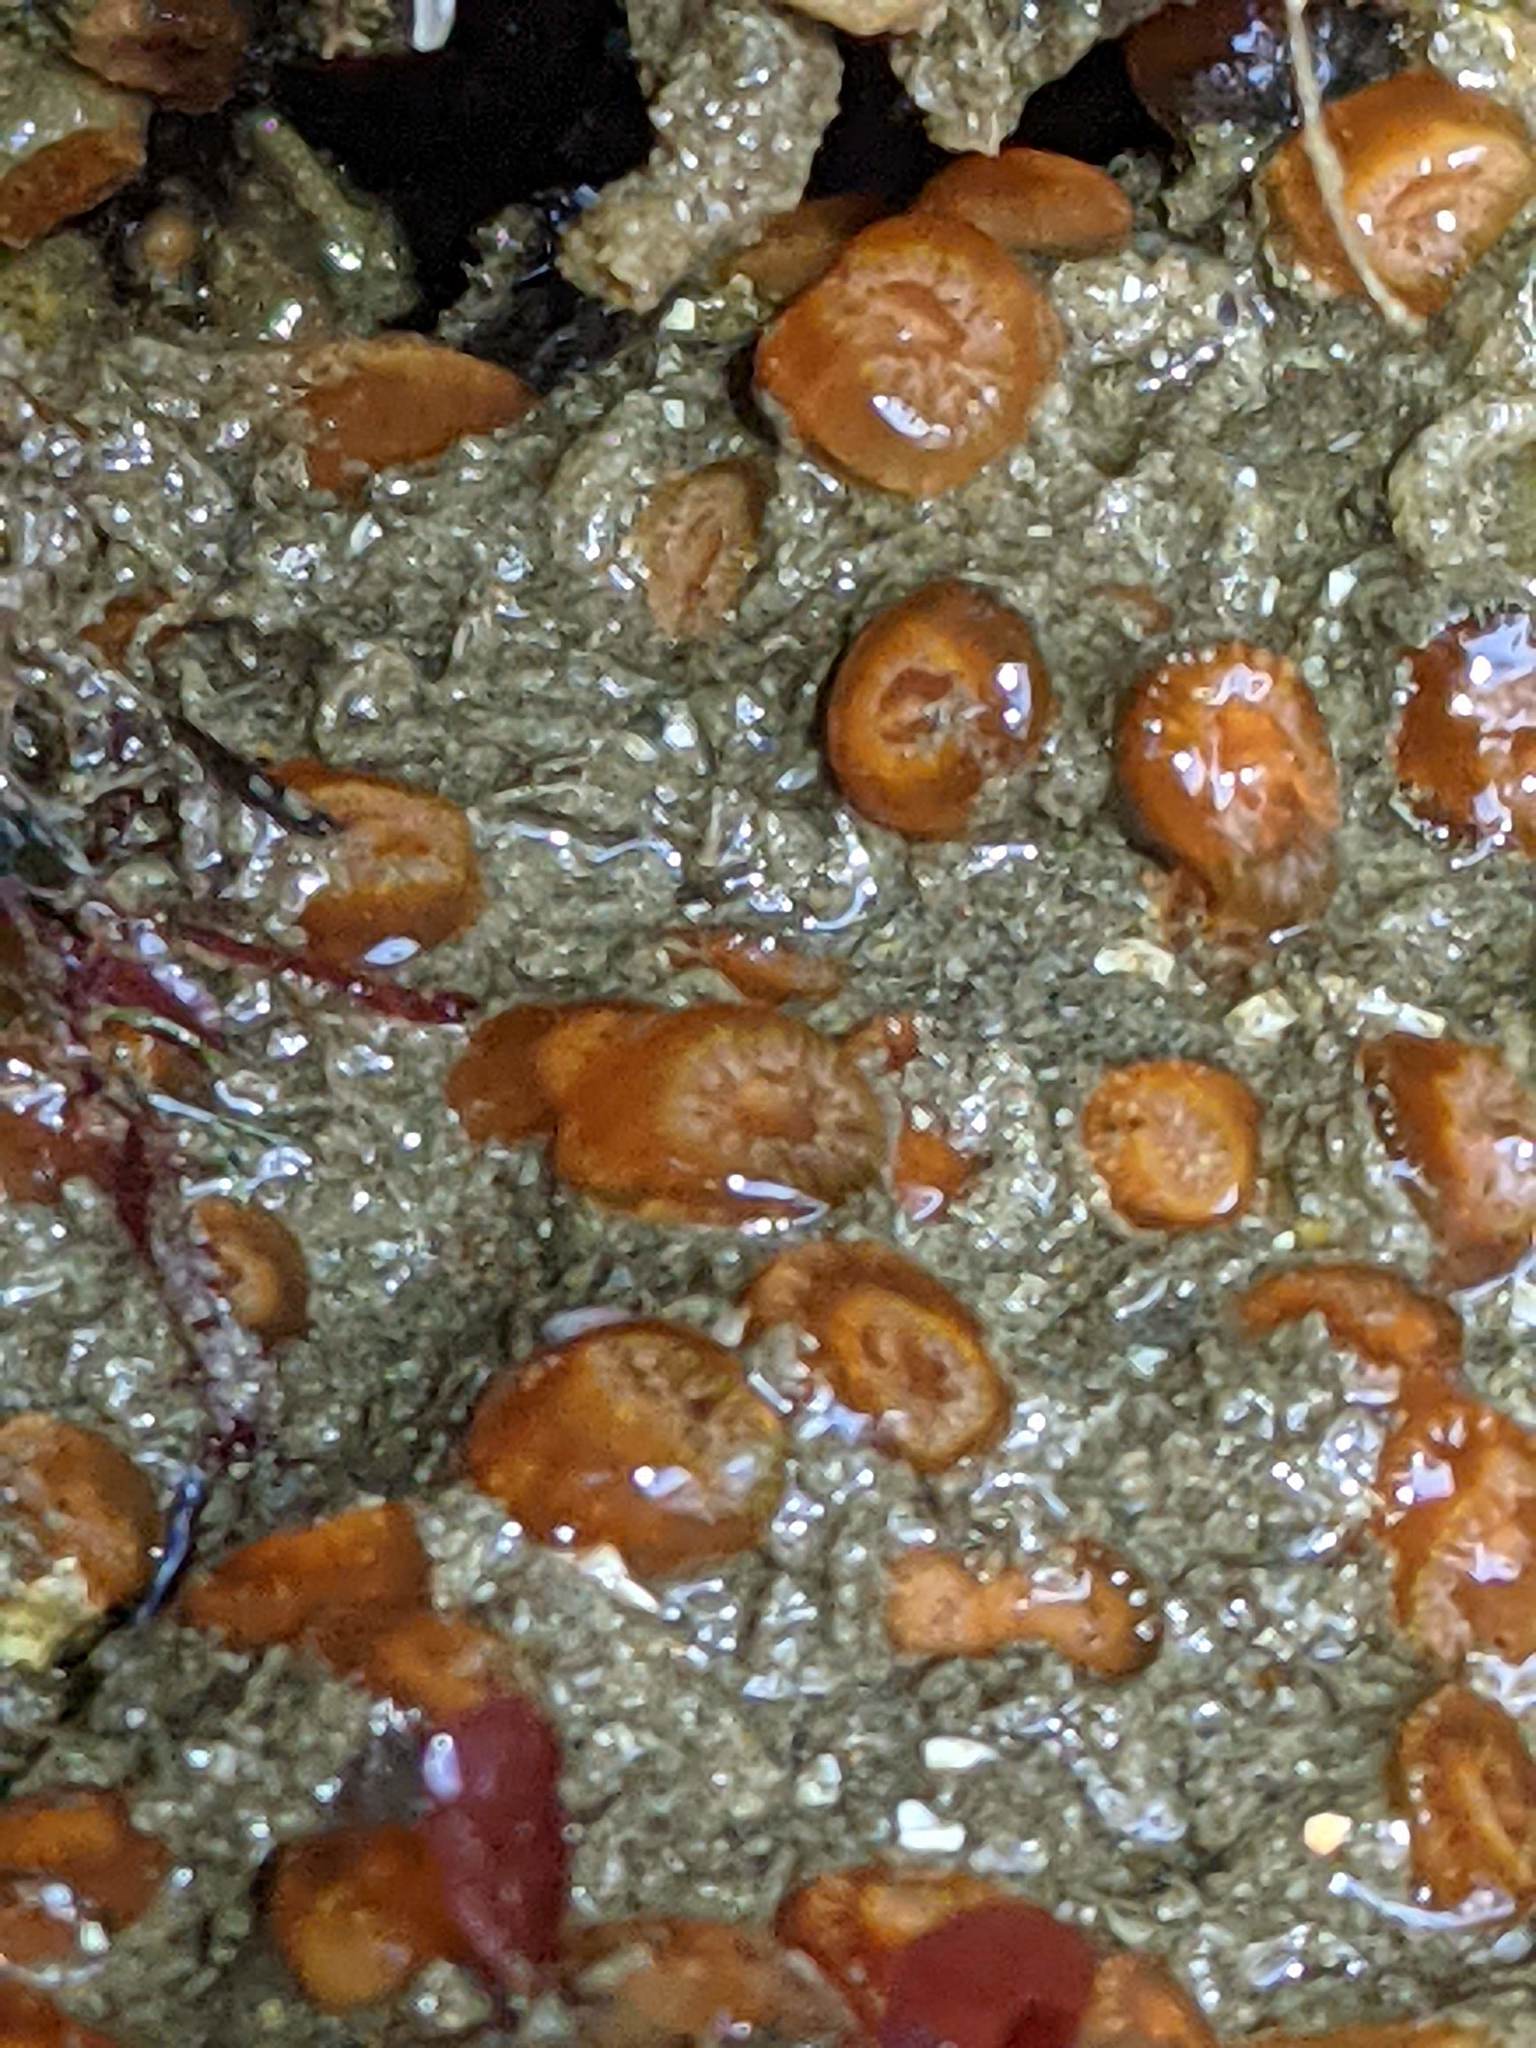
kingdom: Animalia
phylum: Cnidaria
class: Anthozoa
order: Corallimorpharia
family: Corallimorphidae
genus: Corynactis
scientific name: Corynactis californica
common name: Strawberry corallimorpharian
